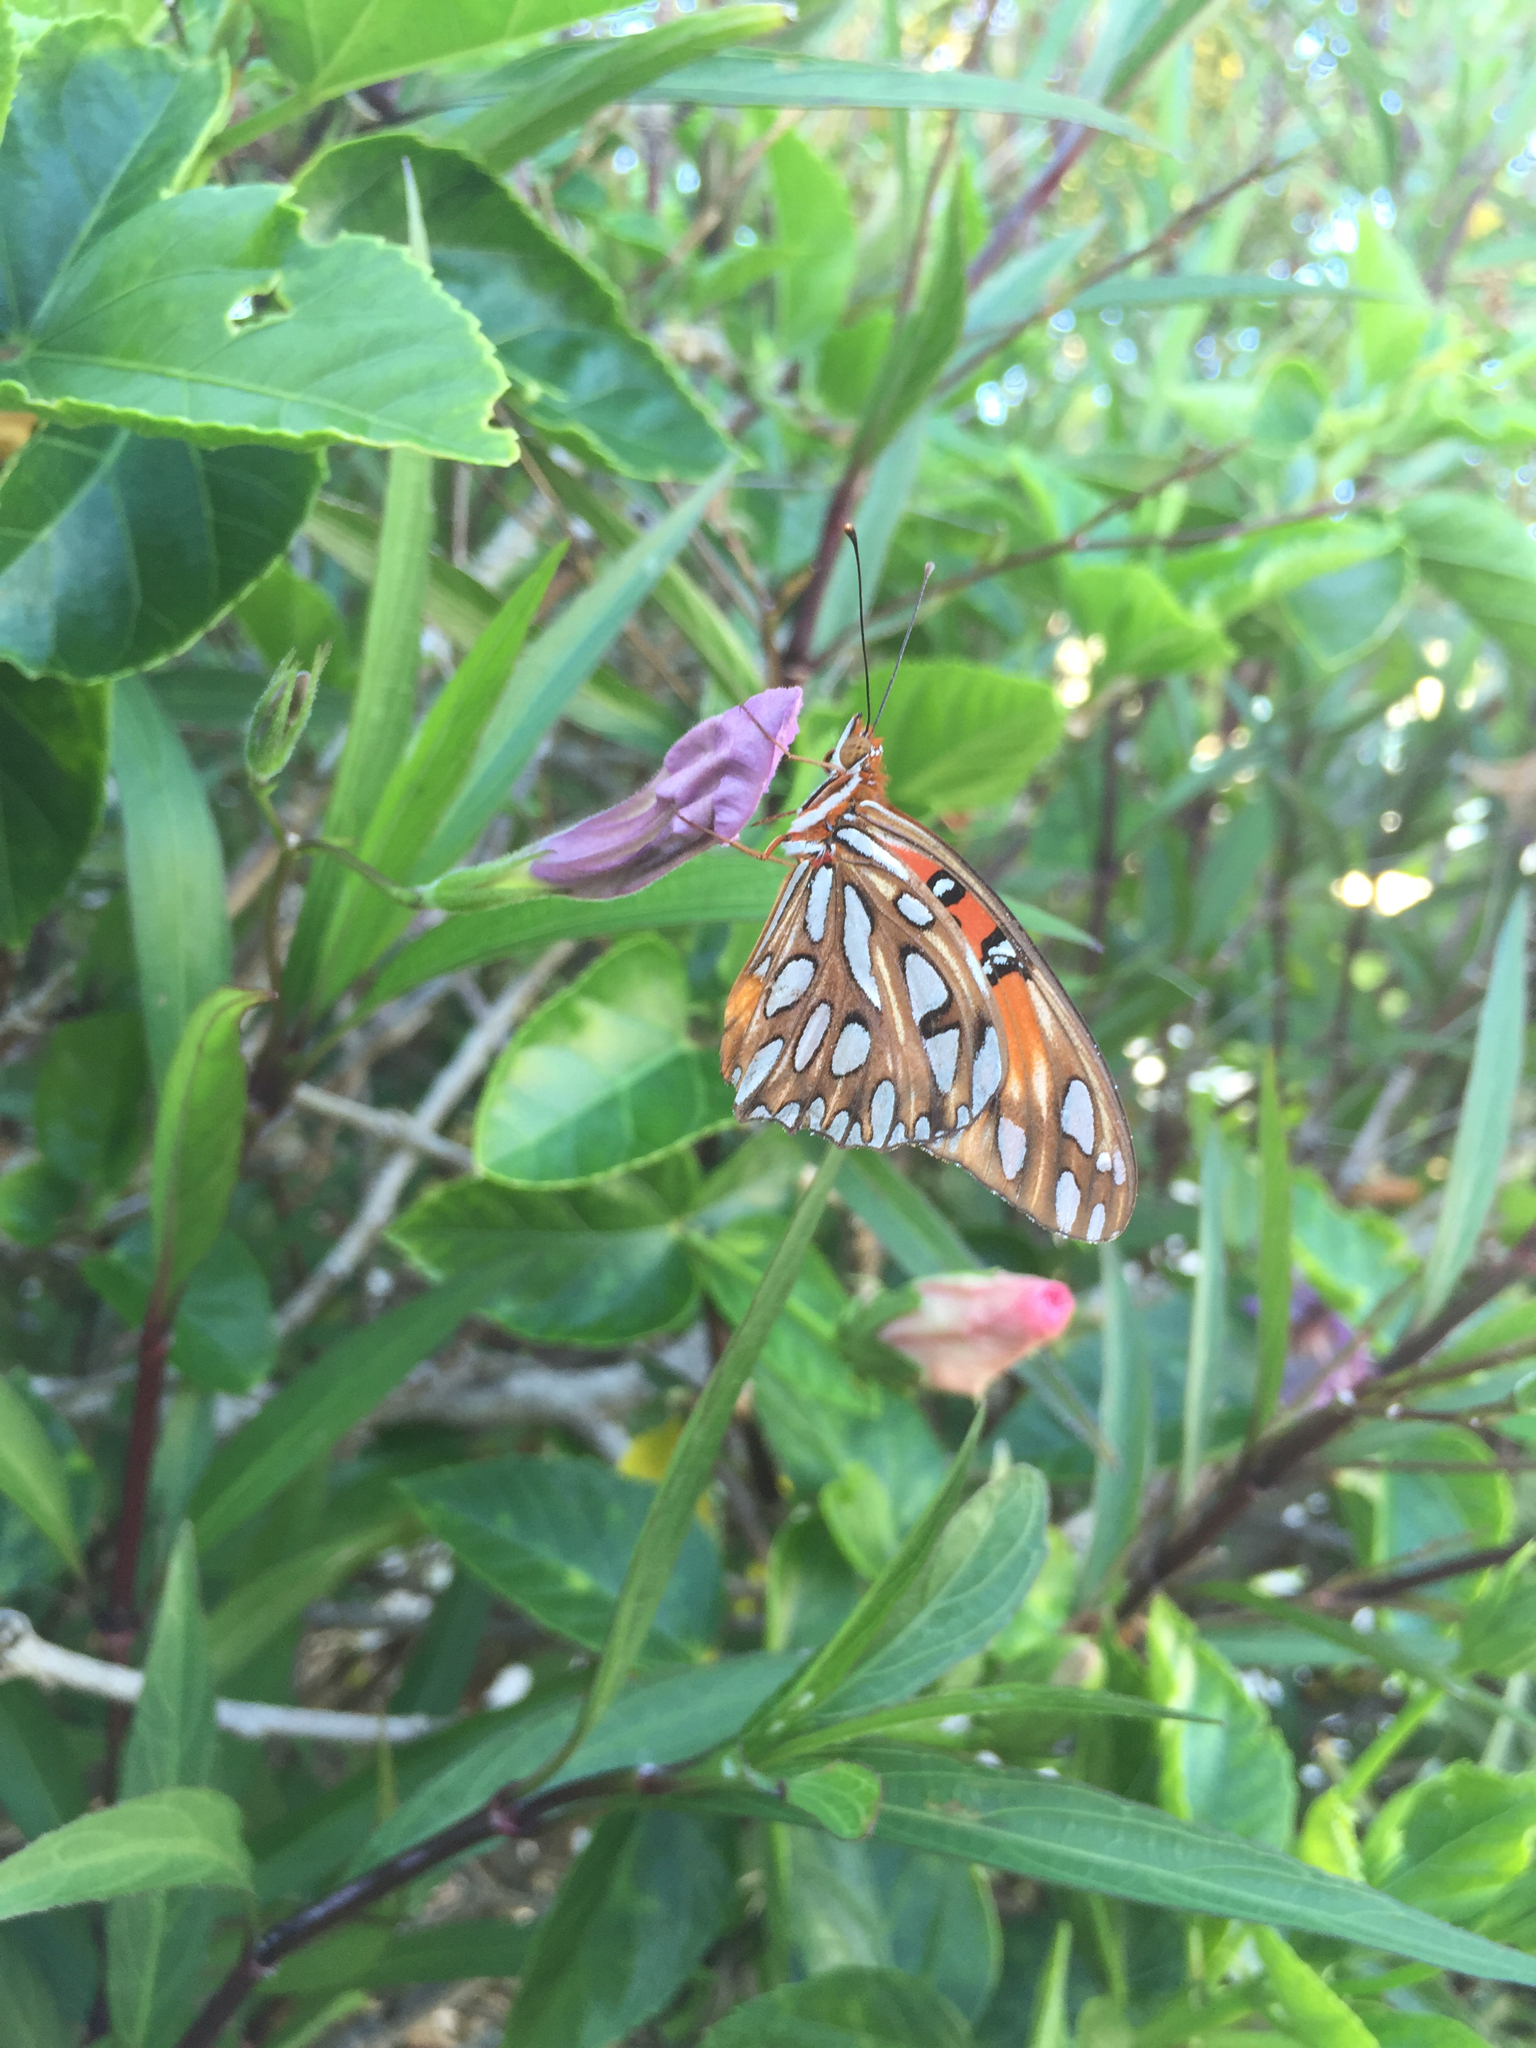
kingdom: Animalia
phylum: Arthropoda
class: Insecta
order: Lepidoptera
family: Nymphalidae
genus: Dione
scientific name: Dione vanillae
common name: Gulf fritillary
